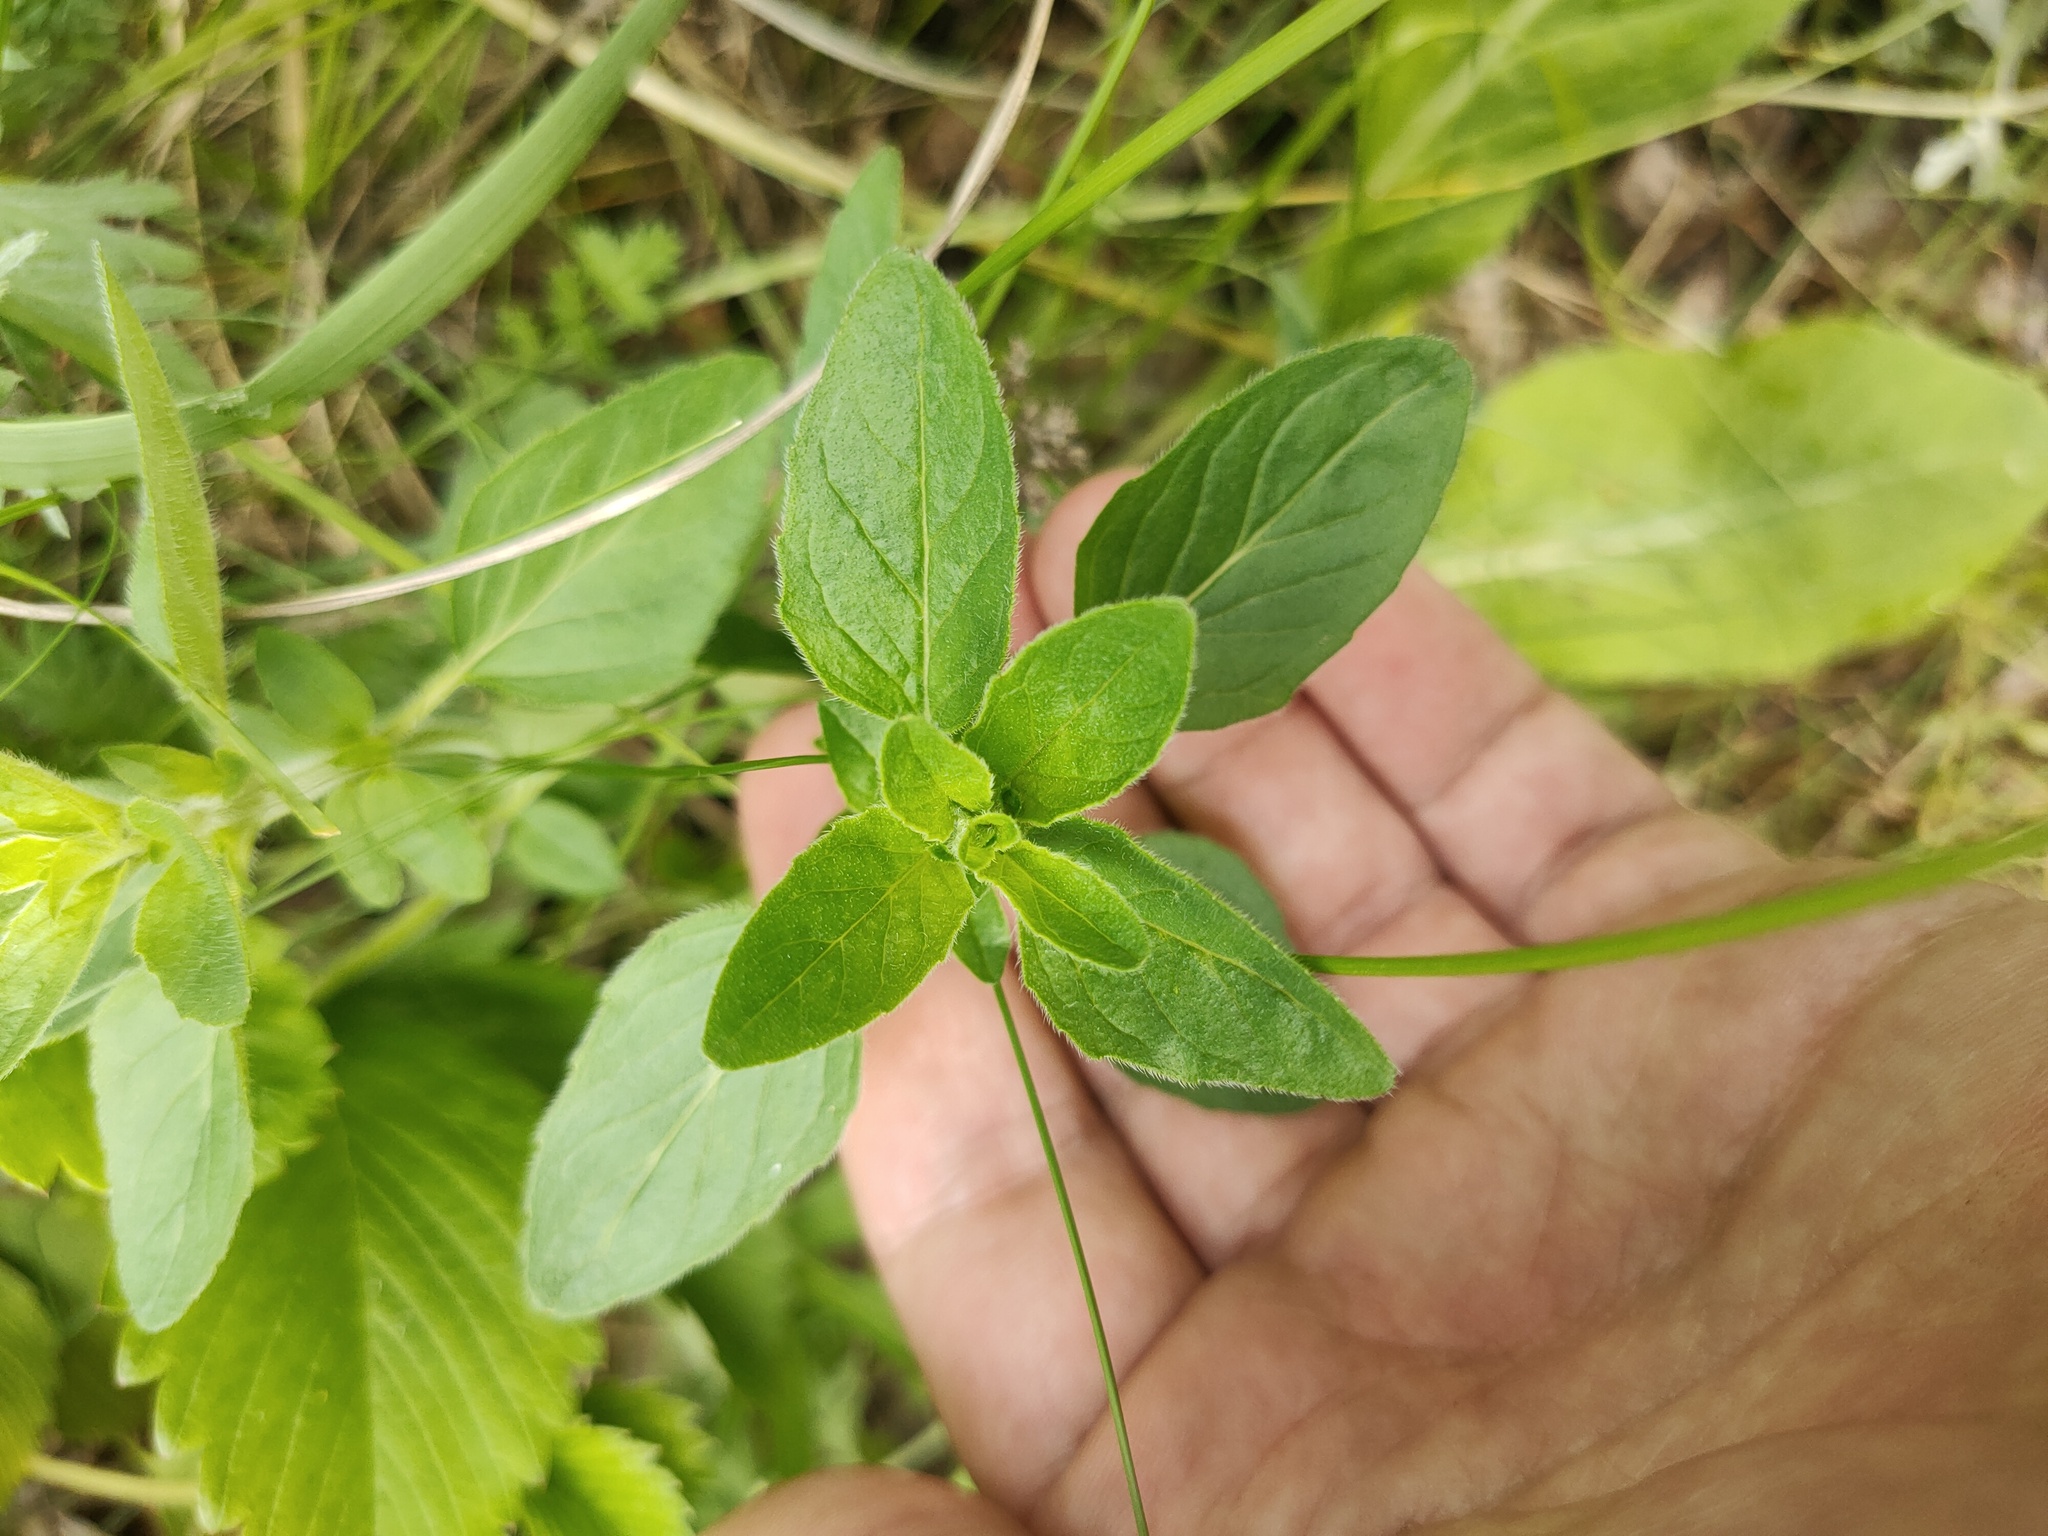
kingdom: Plantae
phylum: Tracheophyta
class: Magnoliopsida
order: Lamiales
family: Lamiaceae
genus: Origanum
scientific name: Origanum vulgare
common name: Wild marjoram
